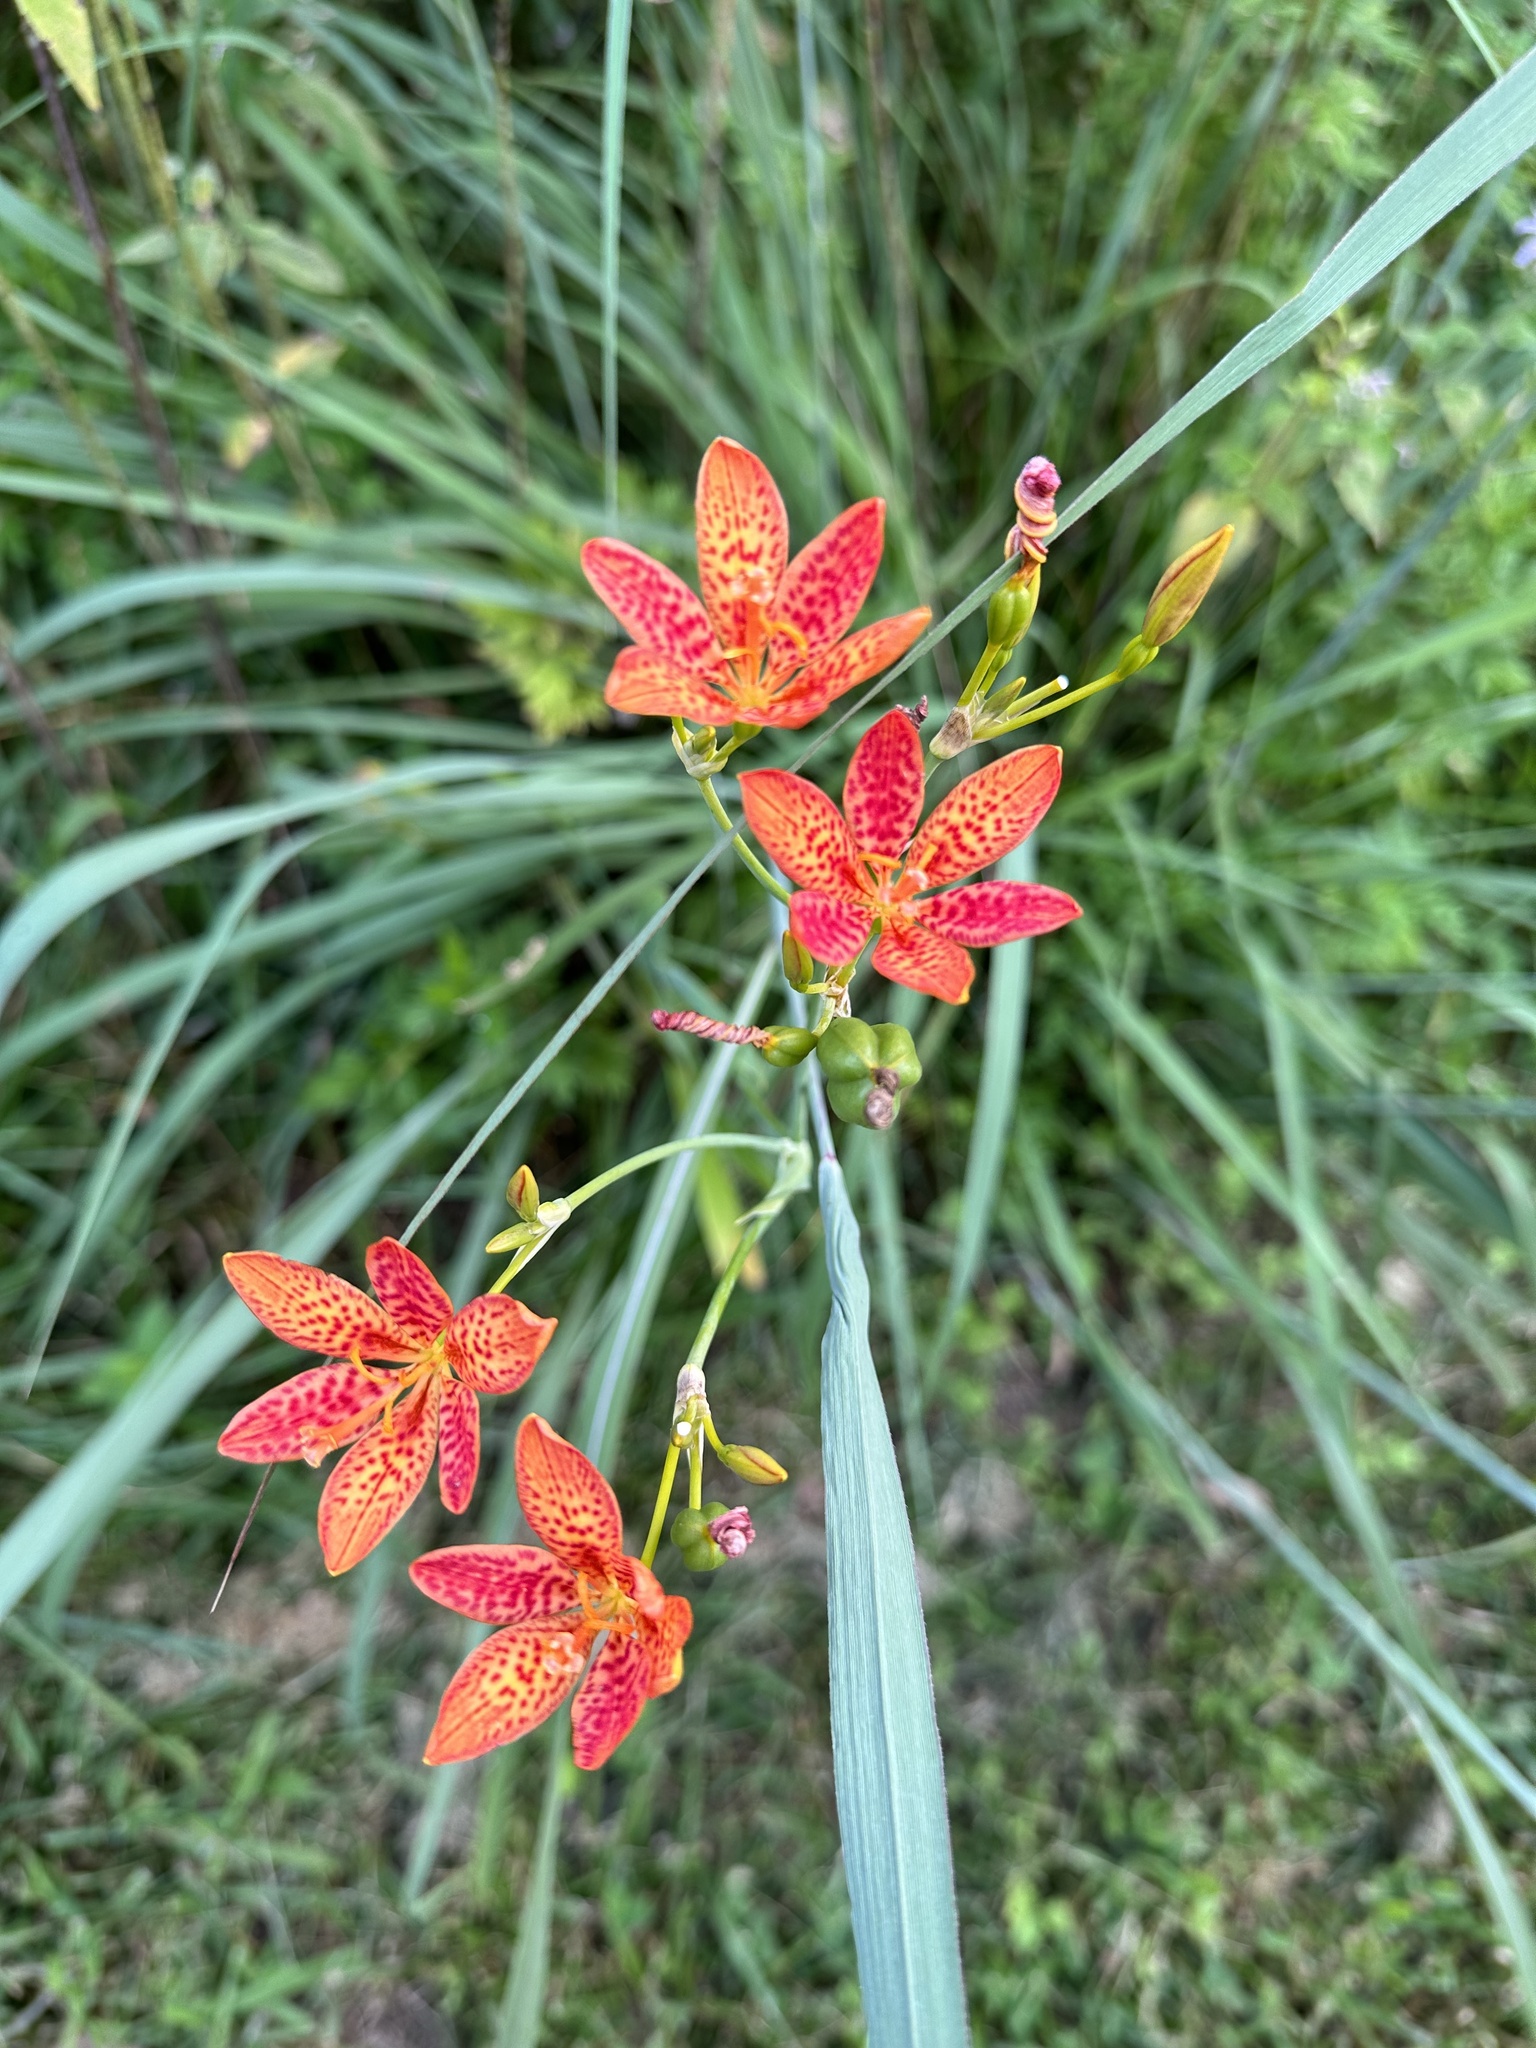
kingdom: Plantae
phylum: Tracheophyta
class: Liliopsida
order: Asparagales
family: Iridaceae
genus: Iris
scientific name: Iris domestica
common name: Belamcanda
